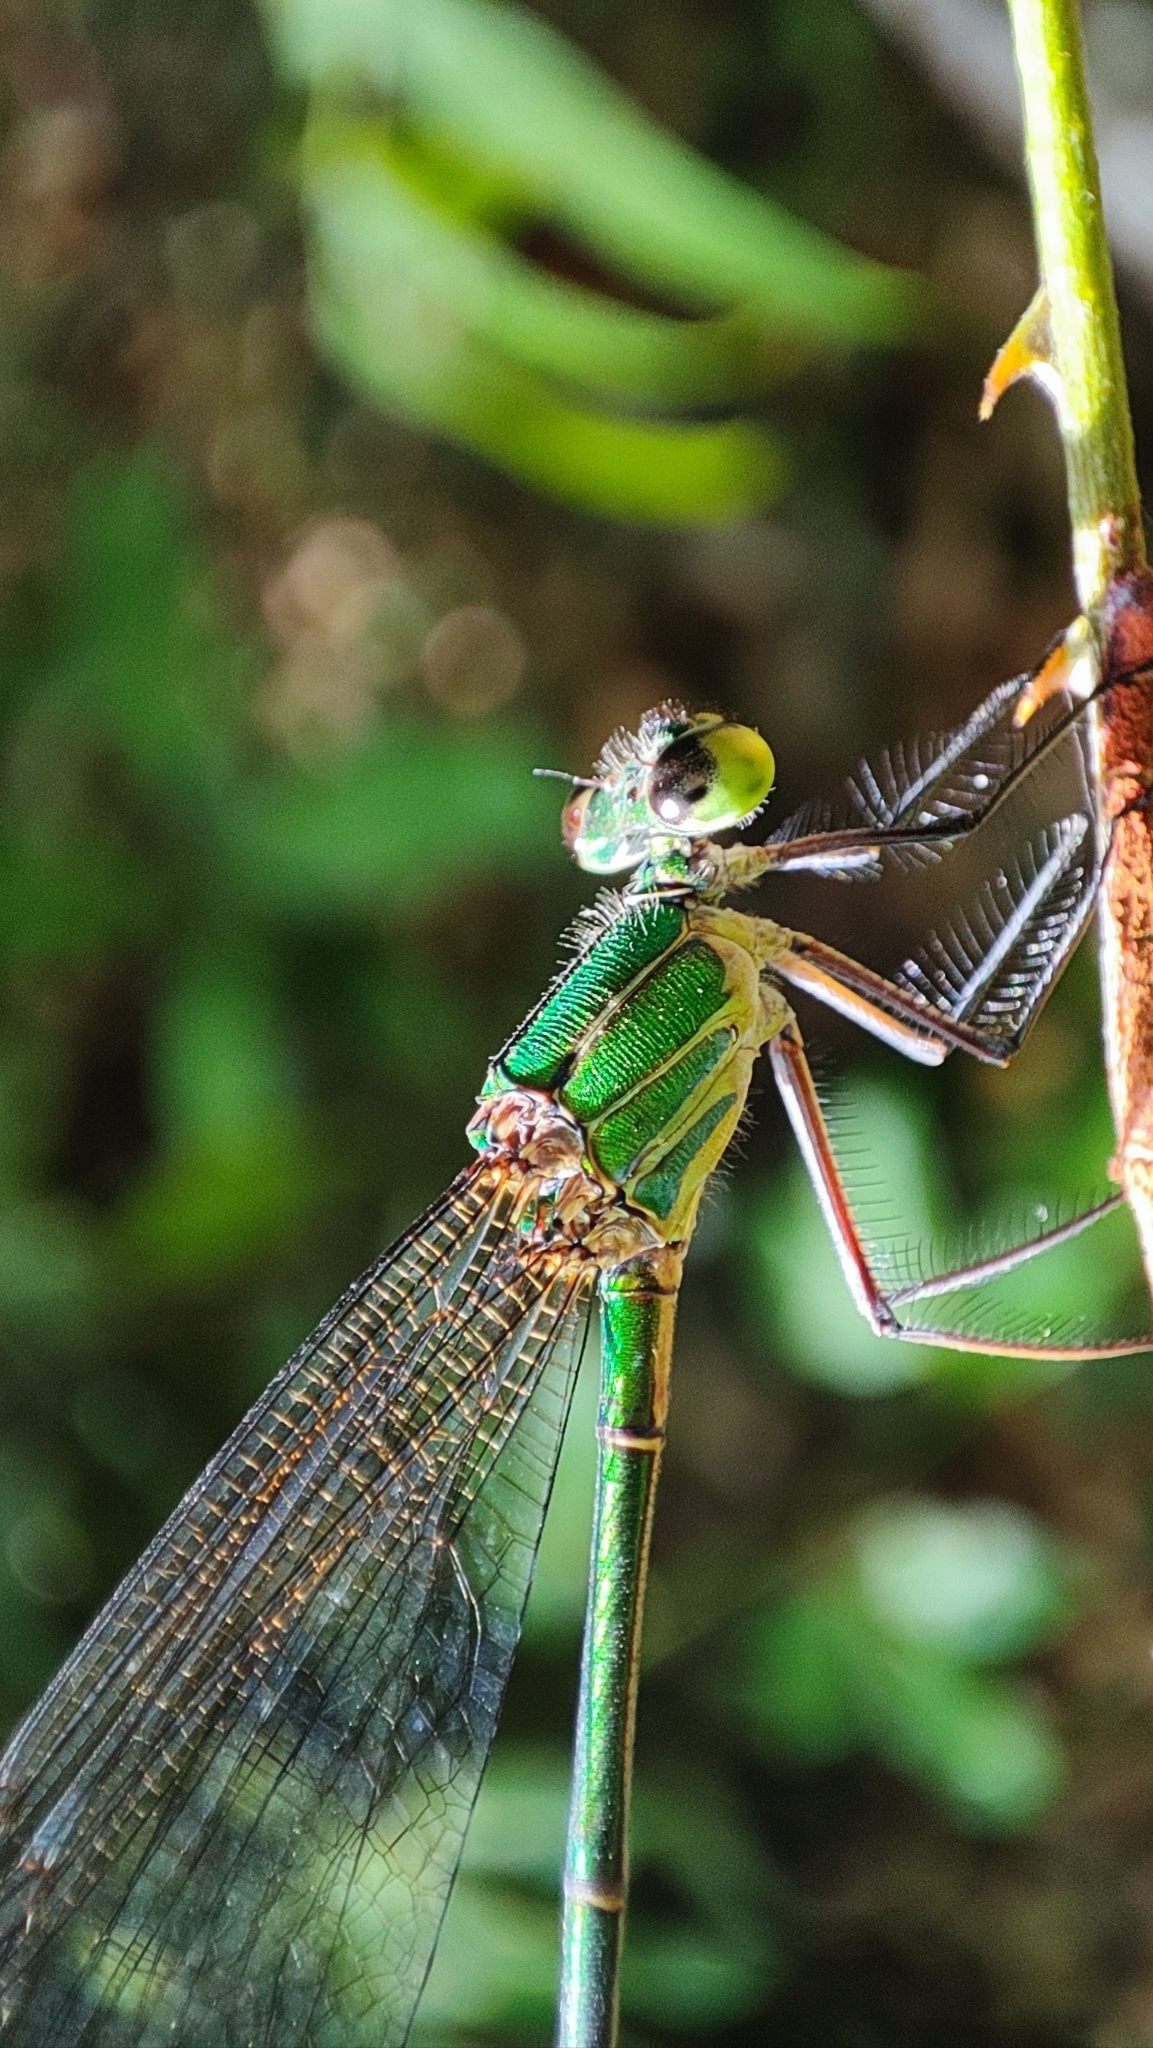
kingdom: Animalia
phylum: Arthropoda
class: Insecta
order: Odonata
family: Calopterygidae
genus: Vestalis
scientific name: Vestalis gracilis
